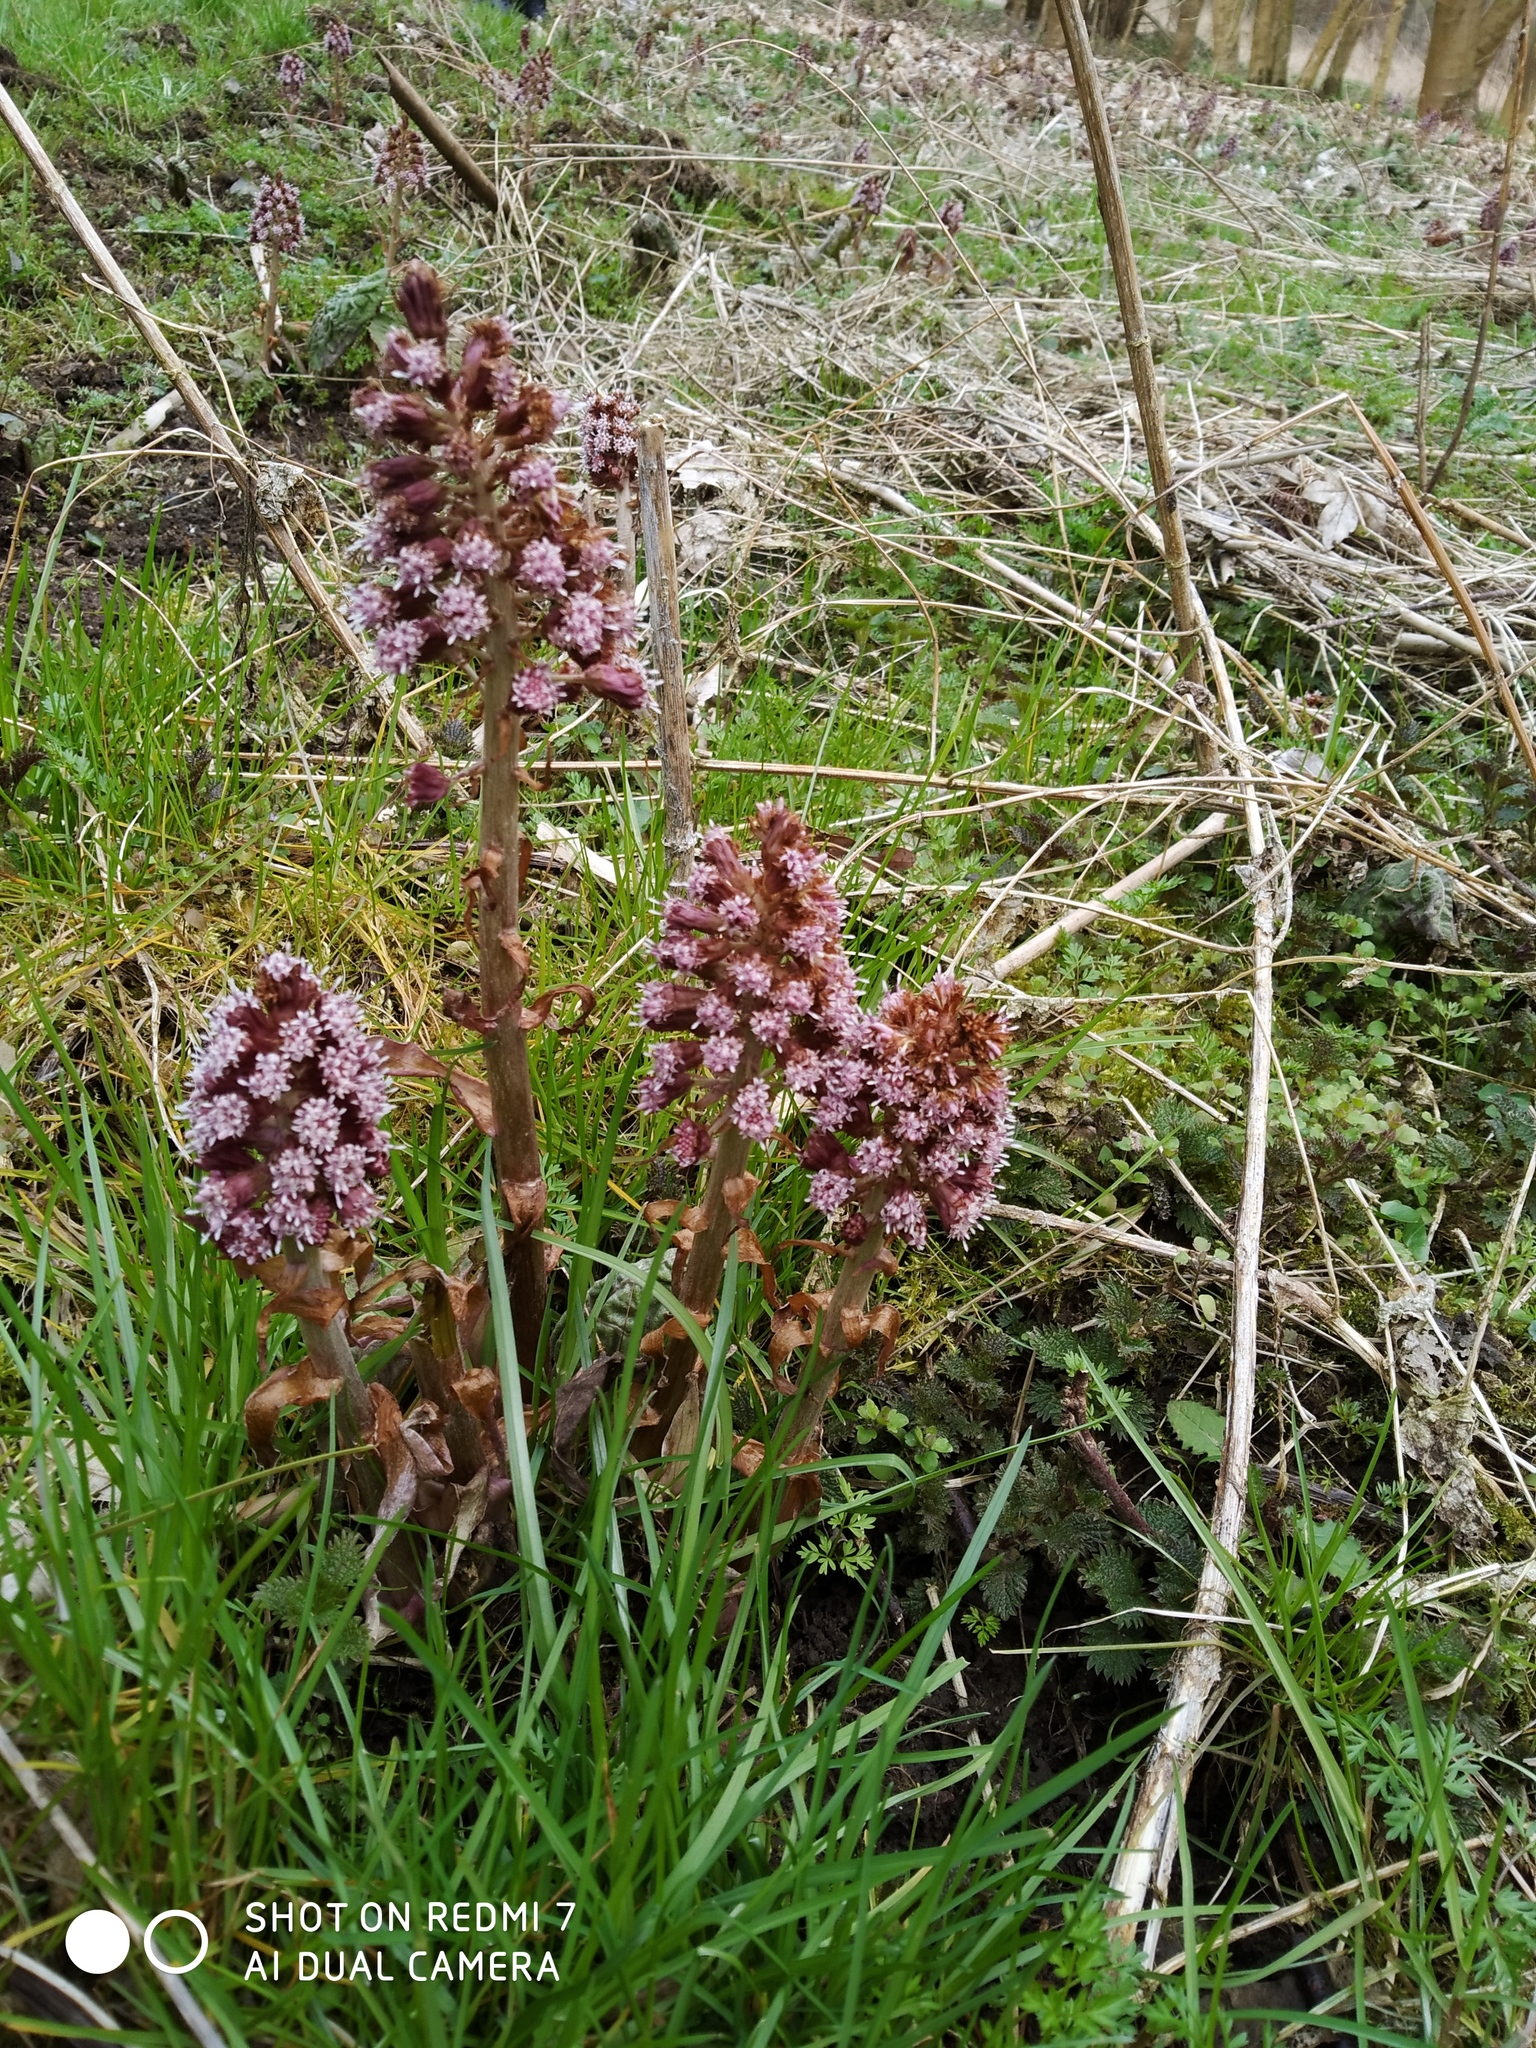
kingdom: Plantae
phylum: Tracheophyta
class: Magnoliopsida
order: Asterales
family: Asteraceae
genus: Petasites
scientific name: Petasites hybridus
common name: Butterbur
